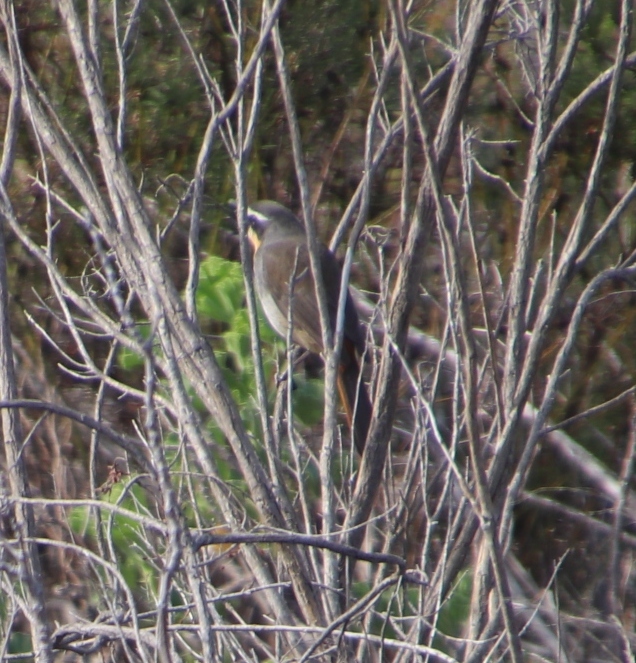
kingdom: Animalia
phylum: Chordata
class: Aves
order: Passeriformes
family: Muscicapidae
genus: Cossypha
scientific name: Cossypha caffra
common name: Cape robin-chat
